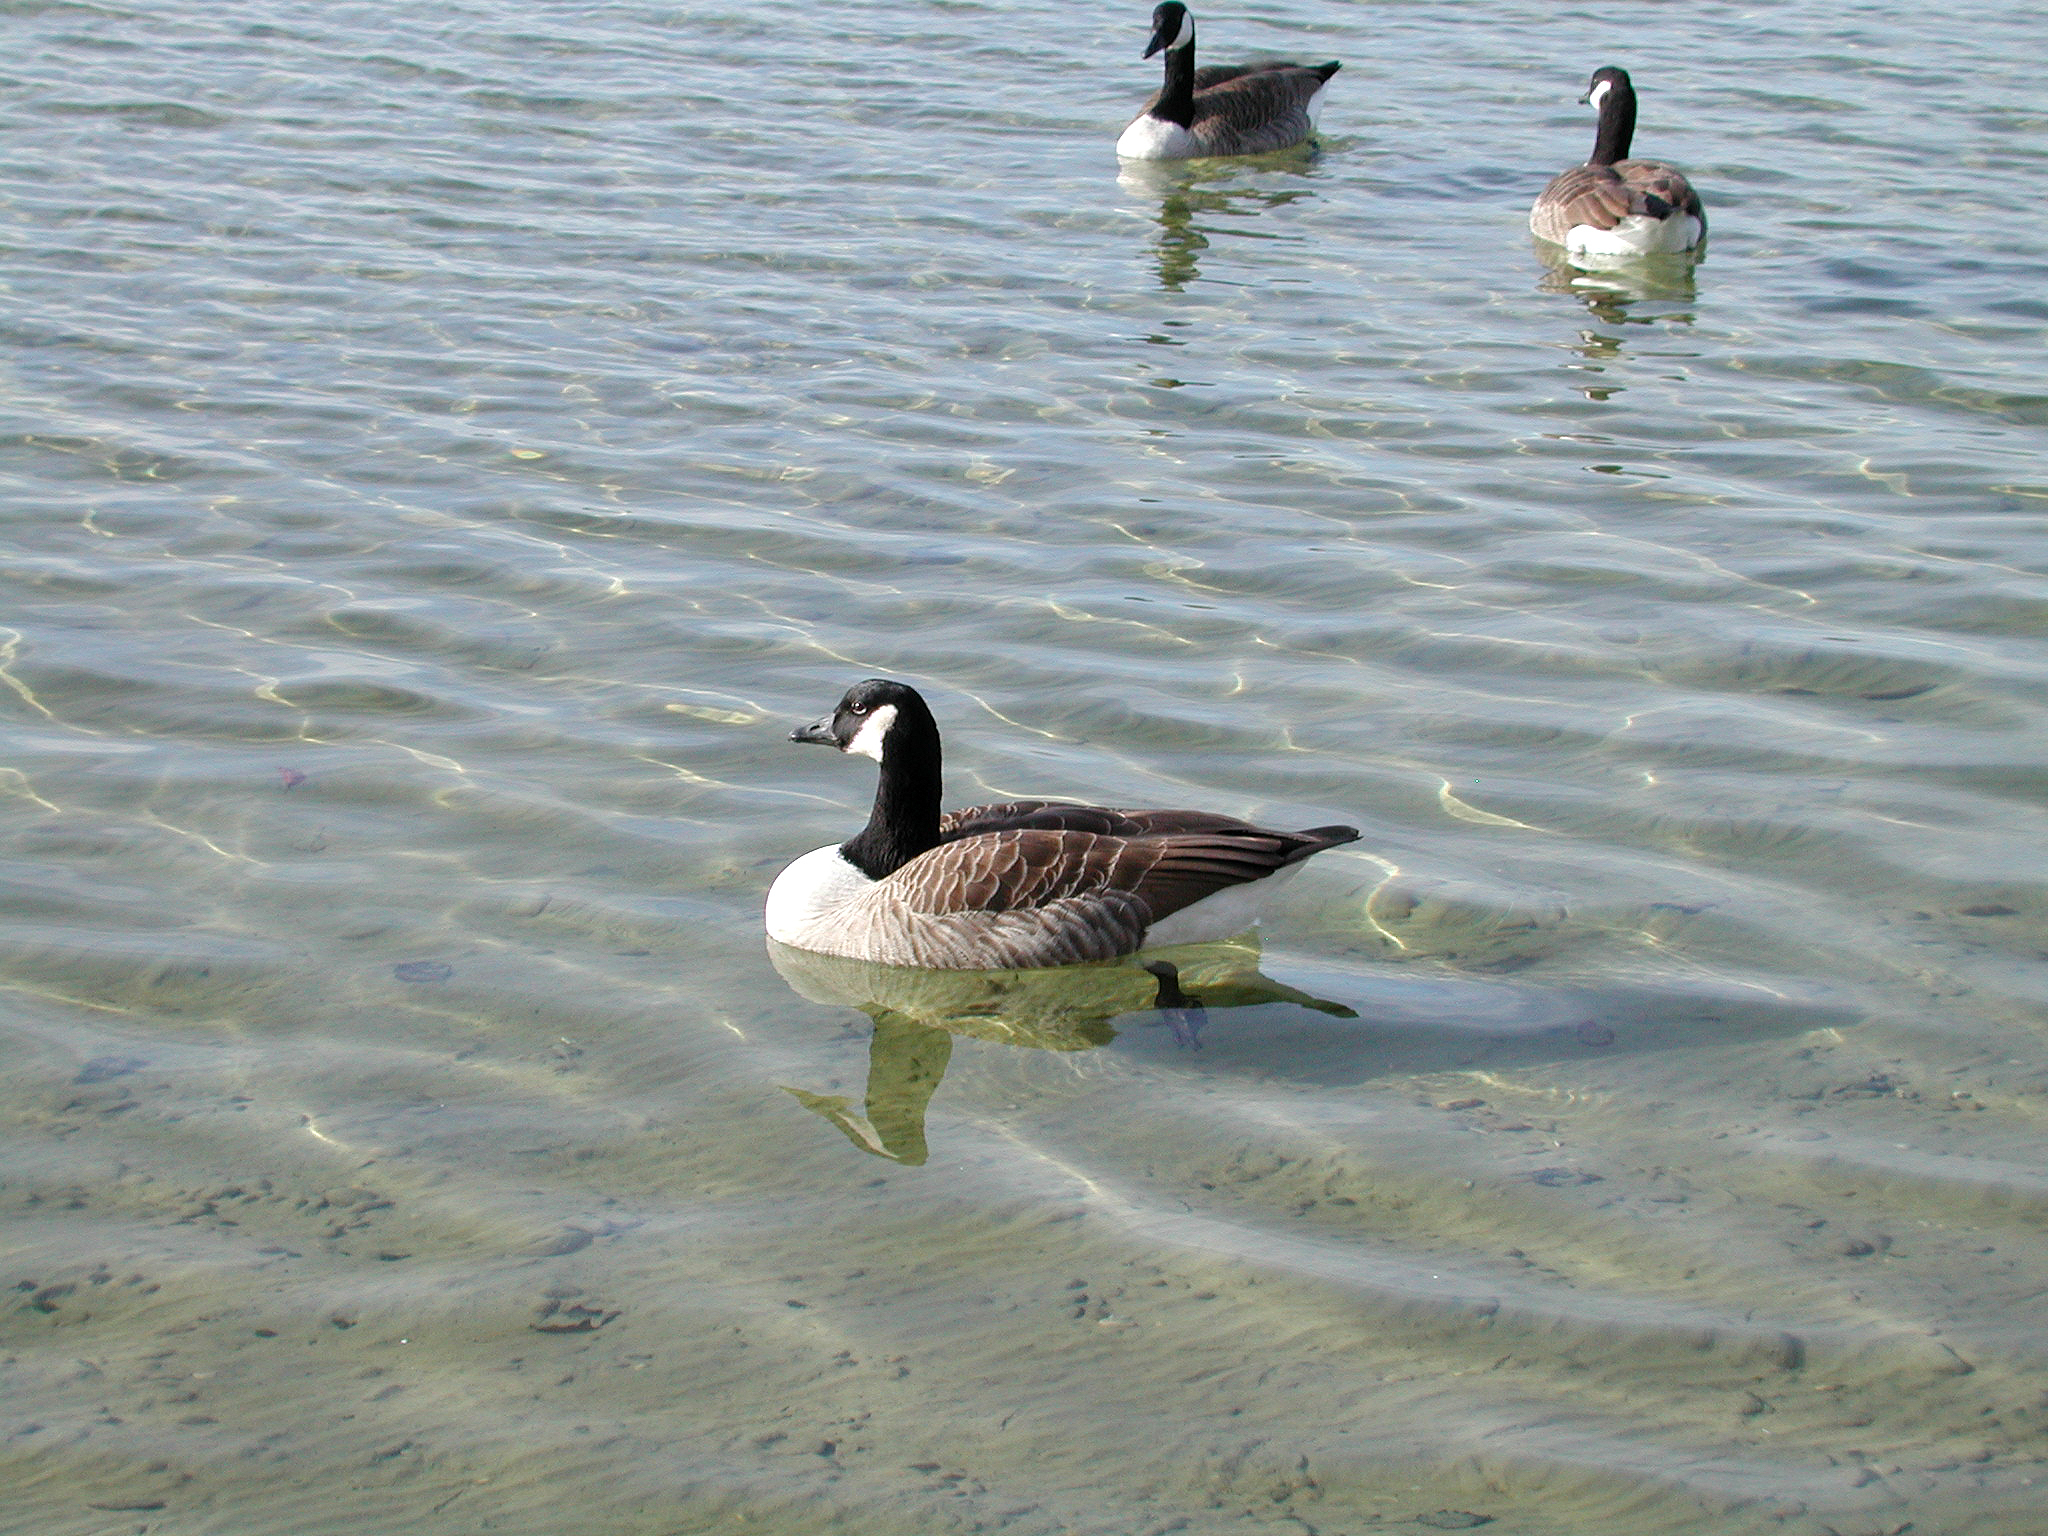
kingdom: Animalia
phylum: Chordata
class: Aves
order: Anseriformes
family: Anatidae
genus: Branta
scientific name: Branta canadensis
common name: Canada goose
